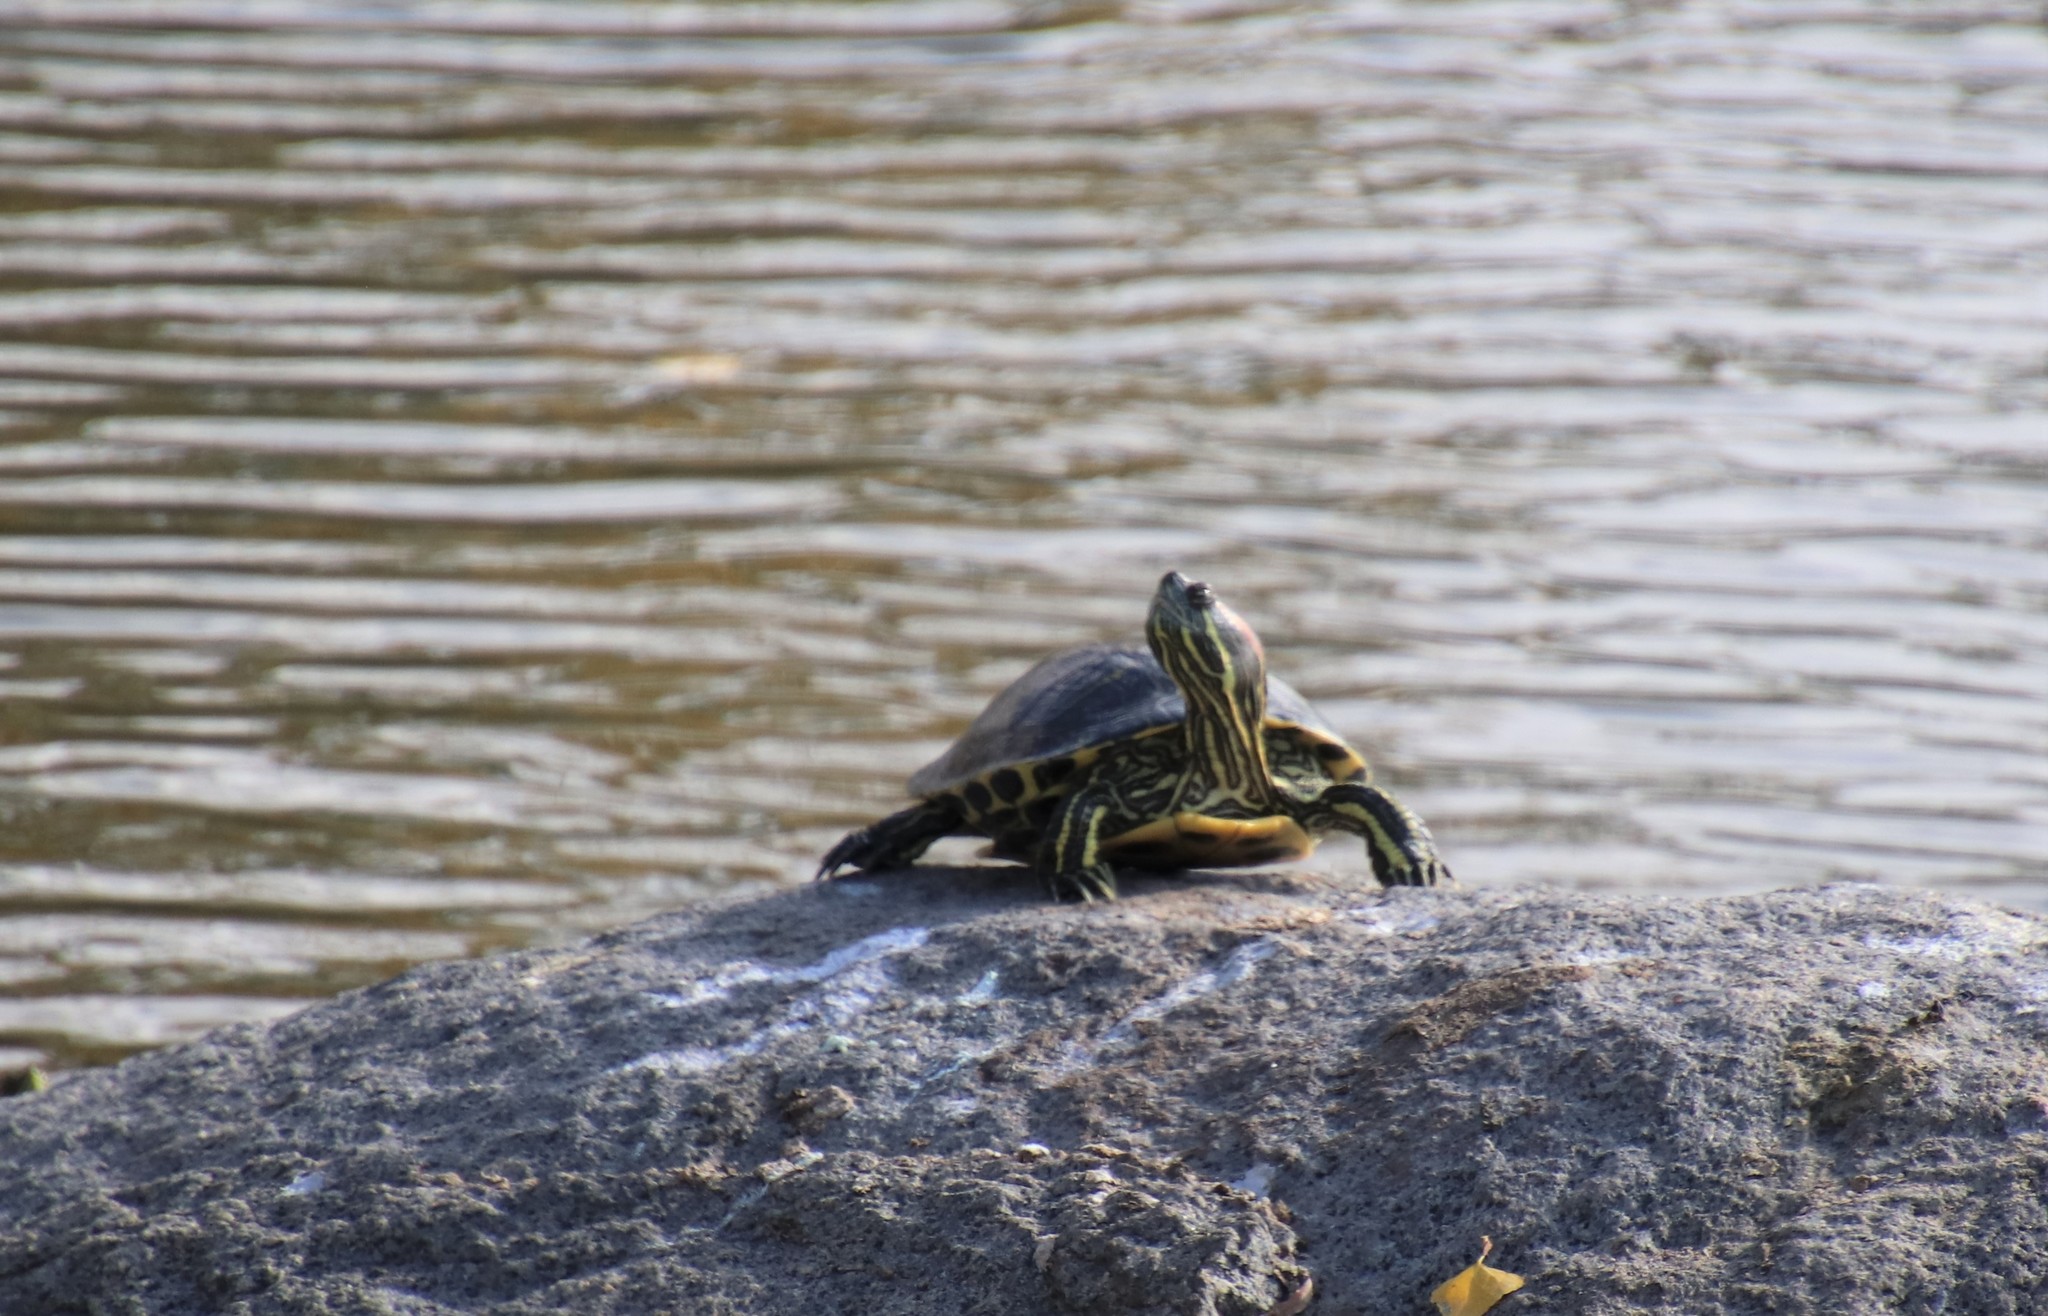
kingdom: Animalia
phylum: Chordata
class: Testudines
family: Emydidae
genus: Trachemys
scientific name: Trachemys scripta
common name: Slider
